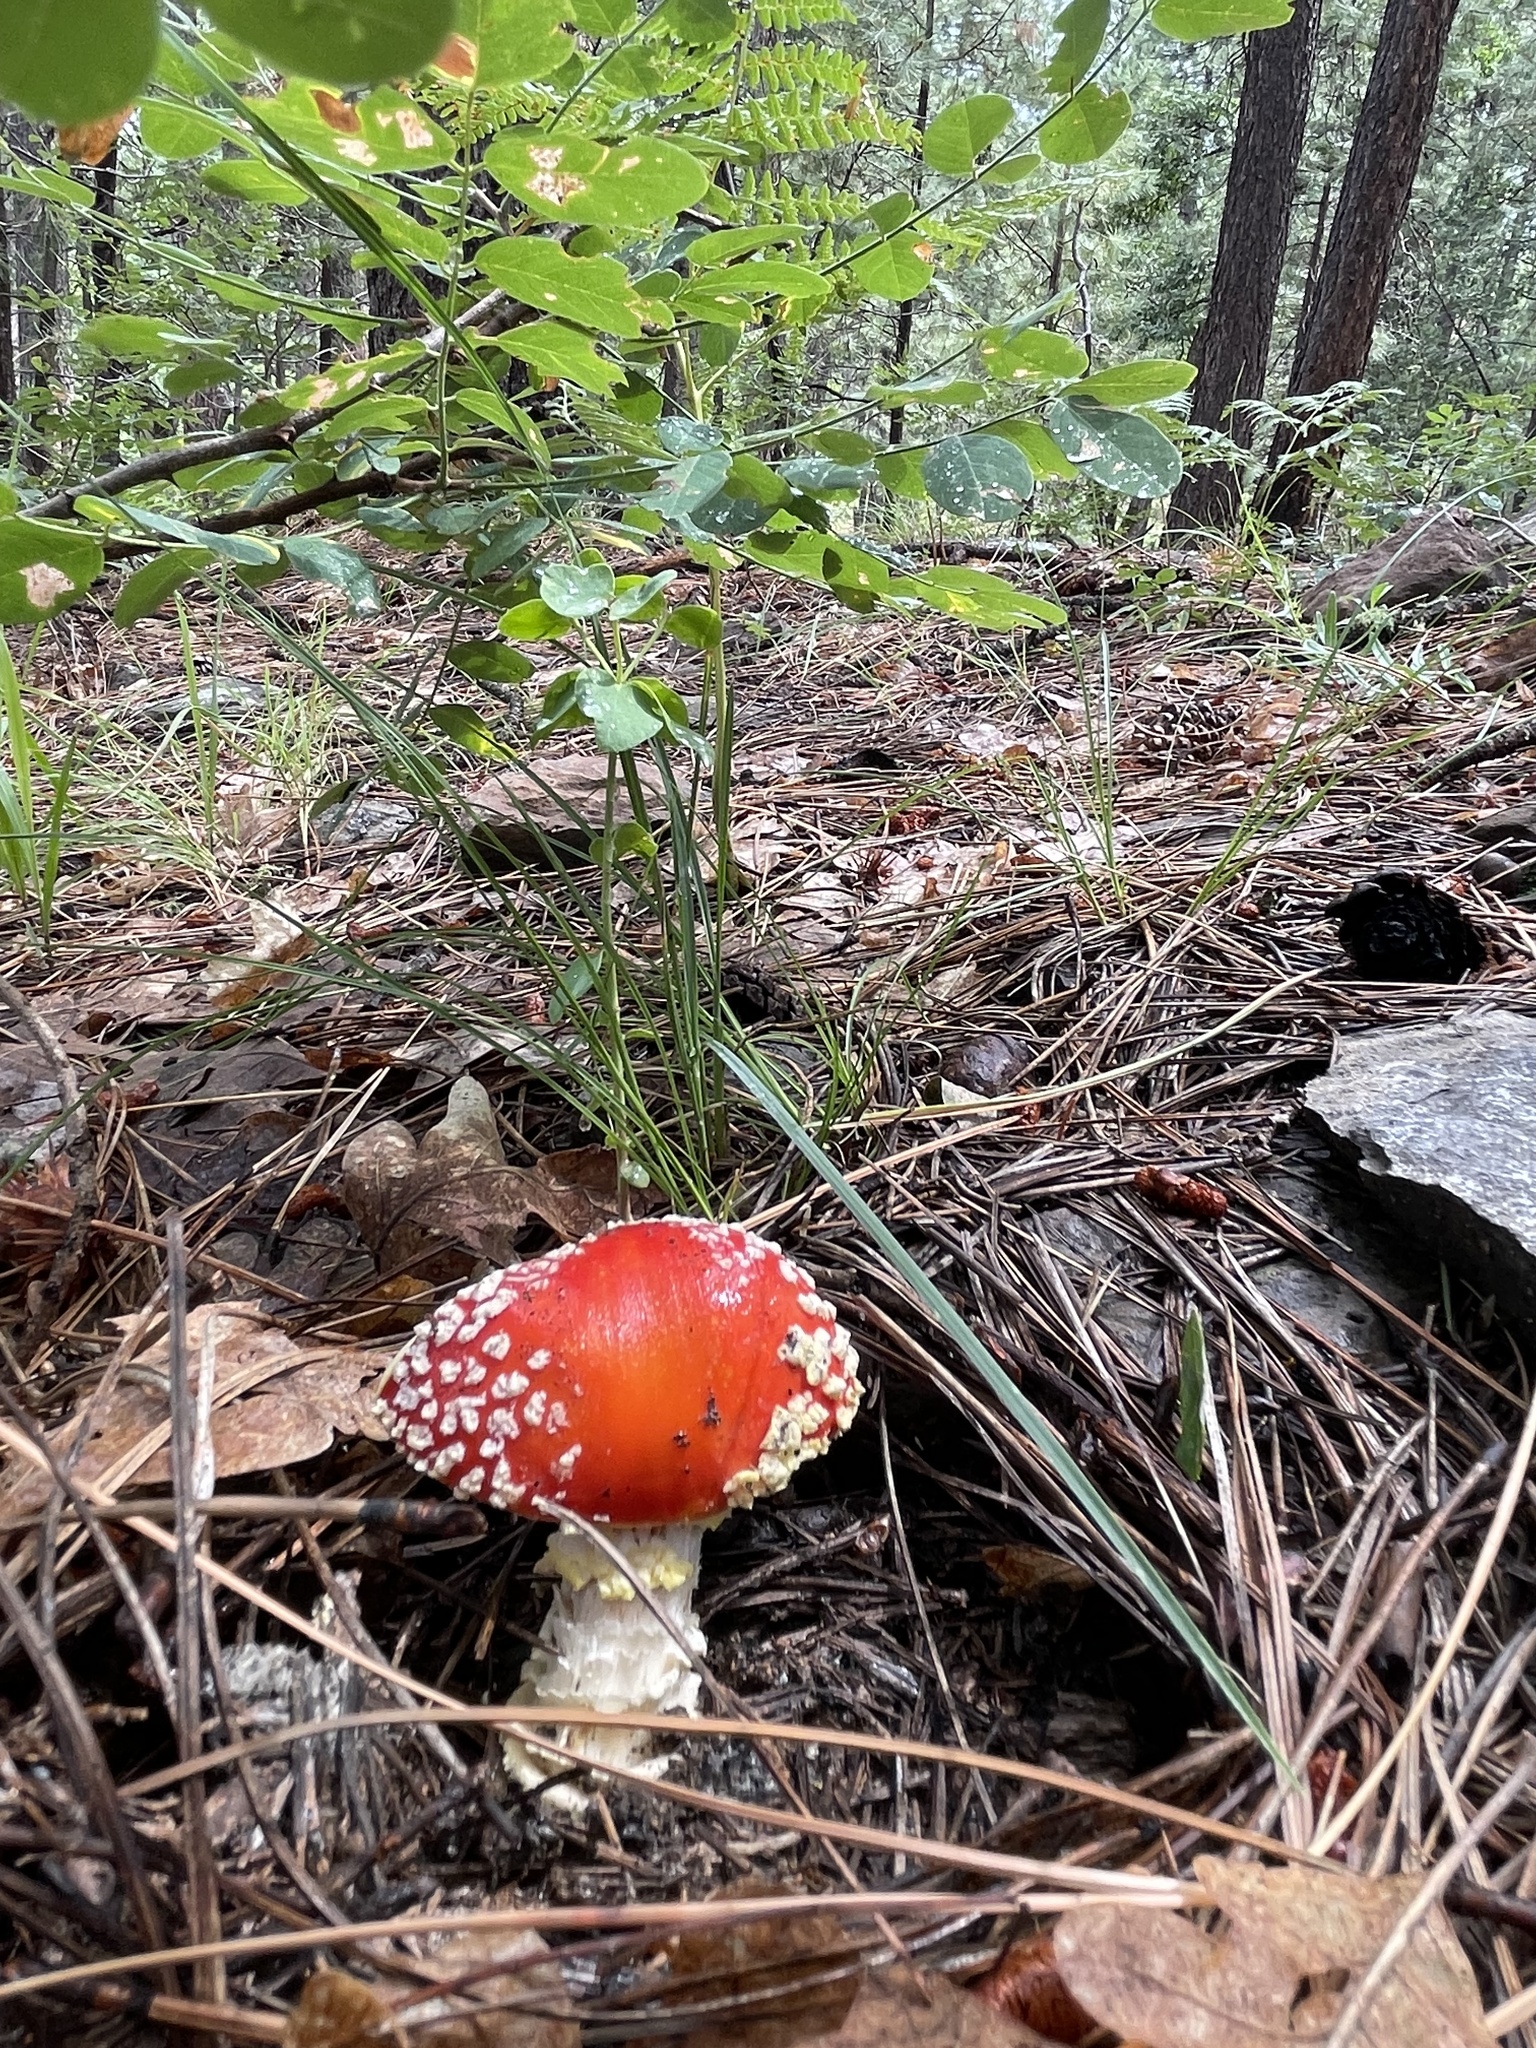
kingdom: Fungi
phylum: Basidiomycota
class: Agaricomycetes
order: Agaricales
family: Amanitaceae
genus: Amanita
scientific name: Amanita muscaria
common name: Fly agaric
